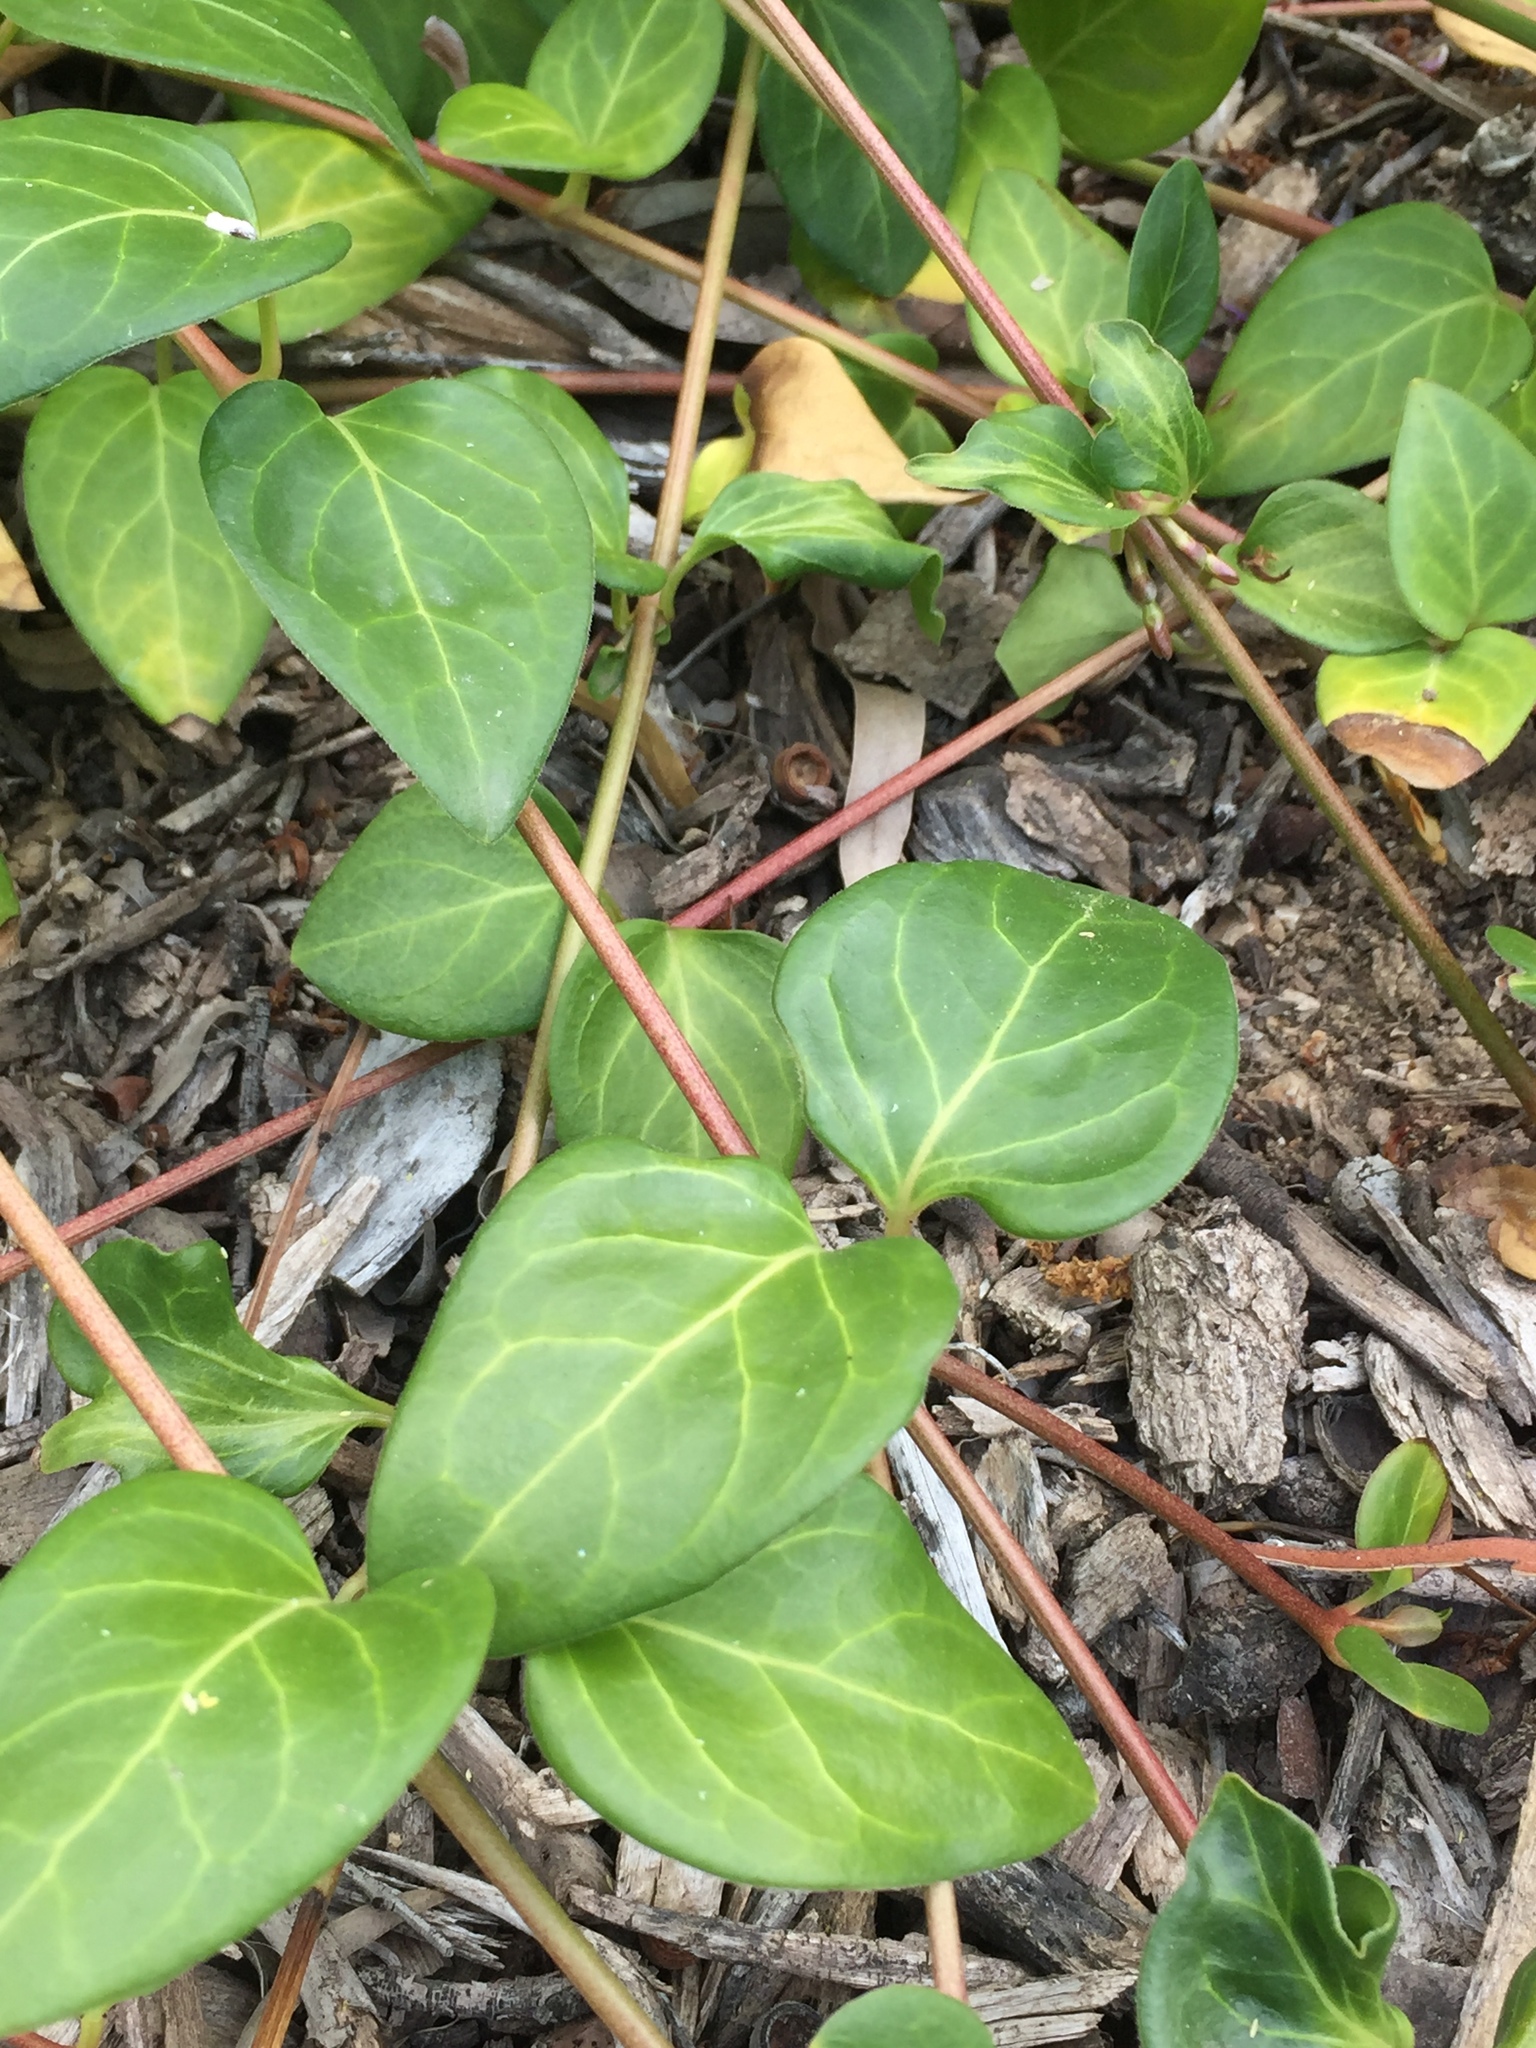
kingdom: Plantae
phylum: Tracheophyta
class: Magnoliopsida
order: Gentianales
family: Apocynaceae
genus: Vinca
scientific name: Vinca major
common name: Greater periwinkle
